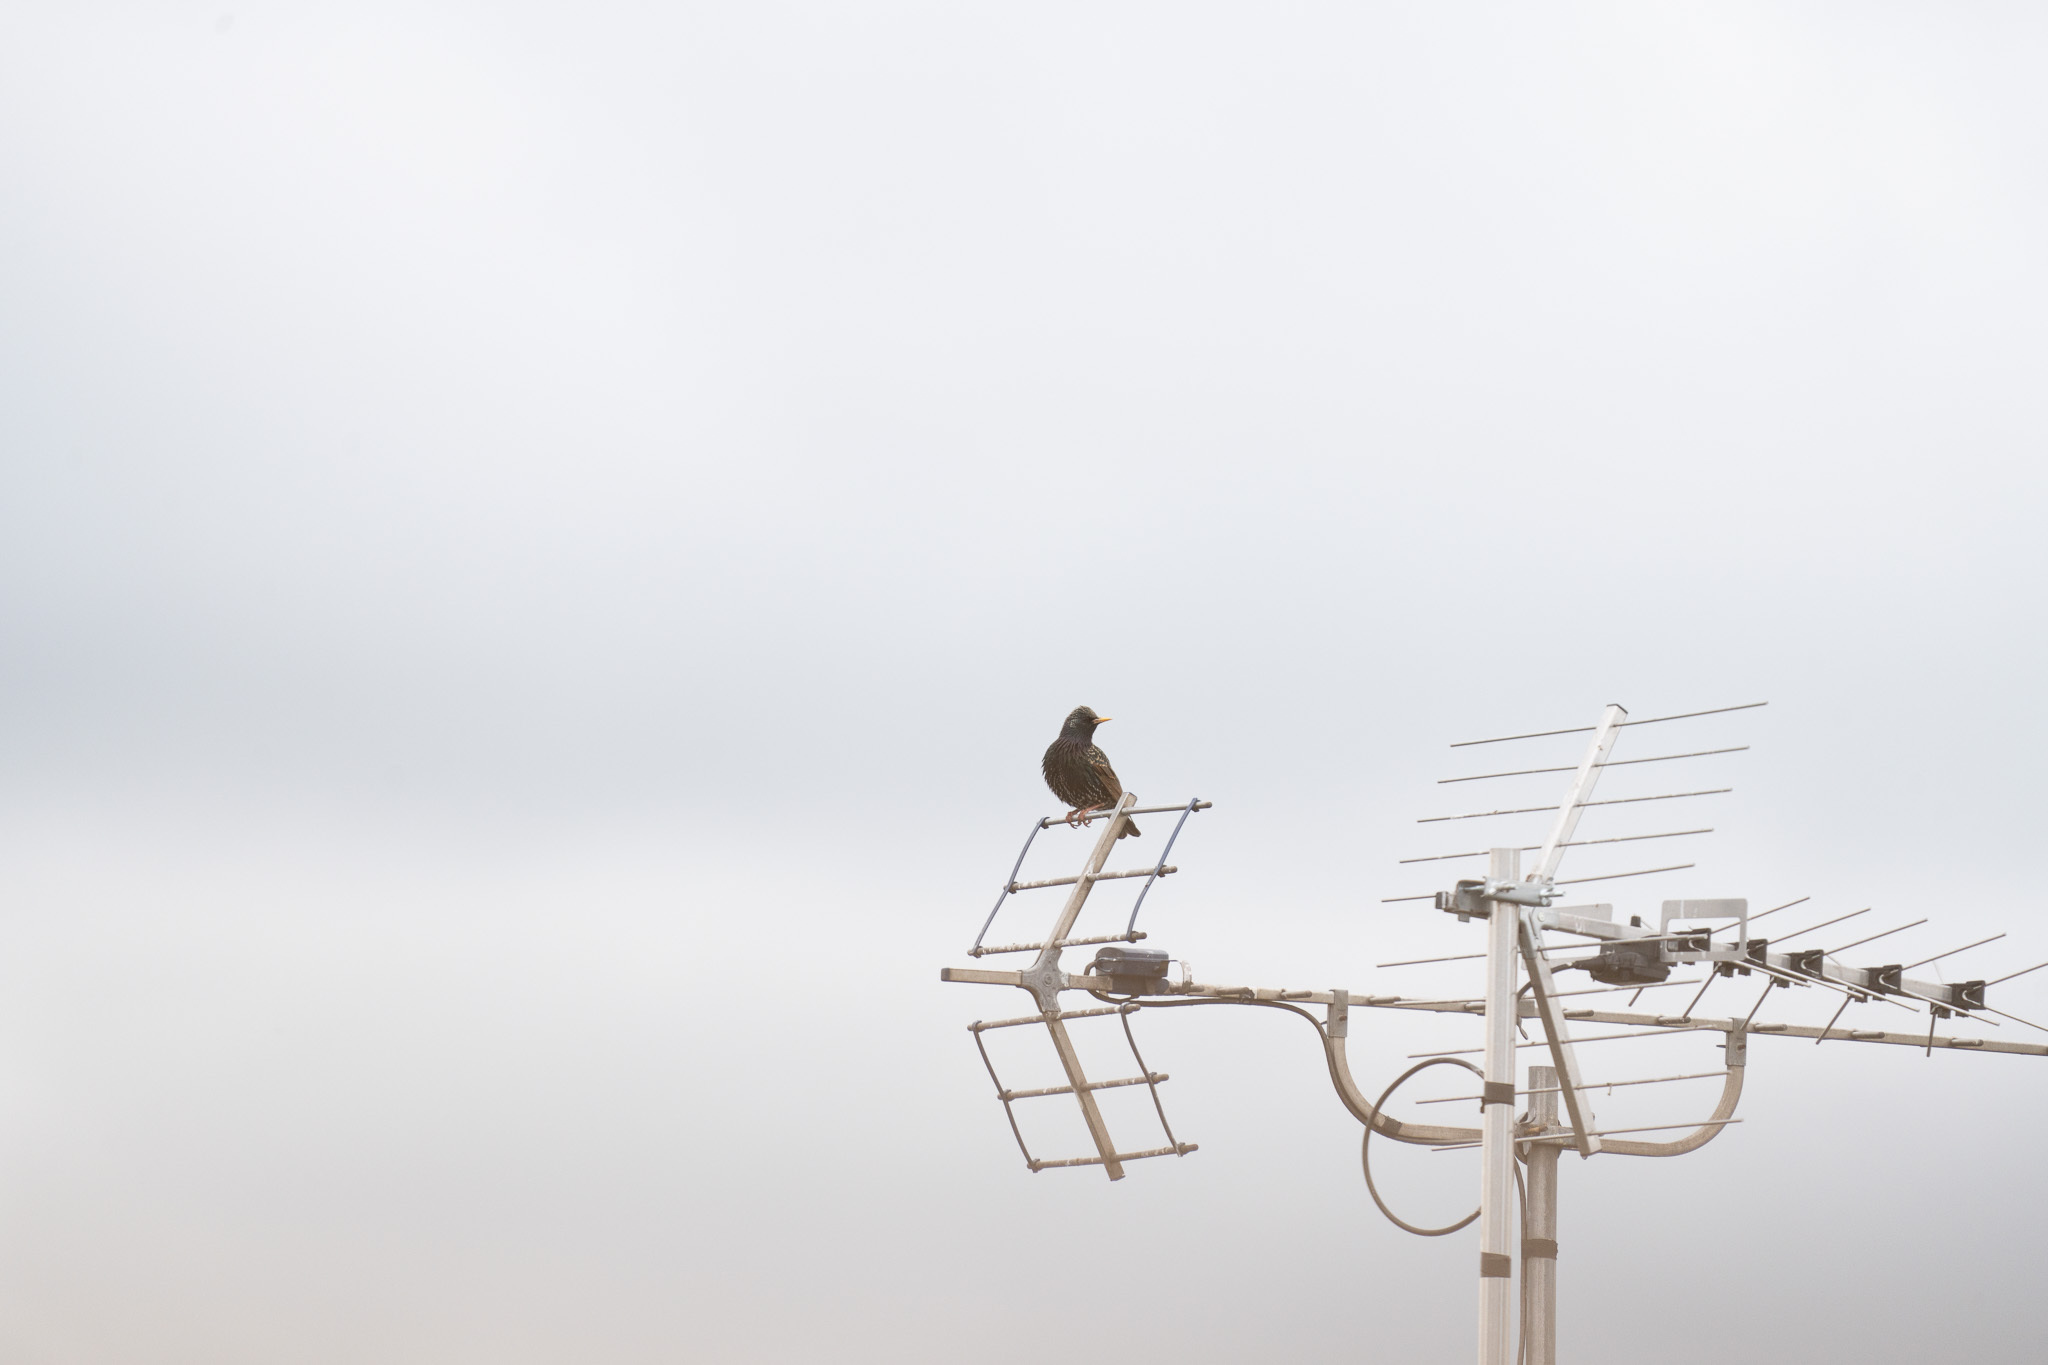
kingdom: Animalia
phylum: Chordata
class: Aves
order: Passeriformes
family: Sturnidae
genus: Sturnus
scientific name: Sturnus vulgaris
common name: Common starling
